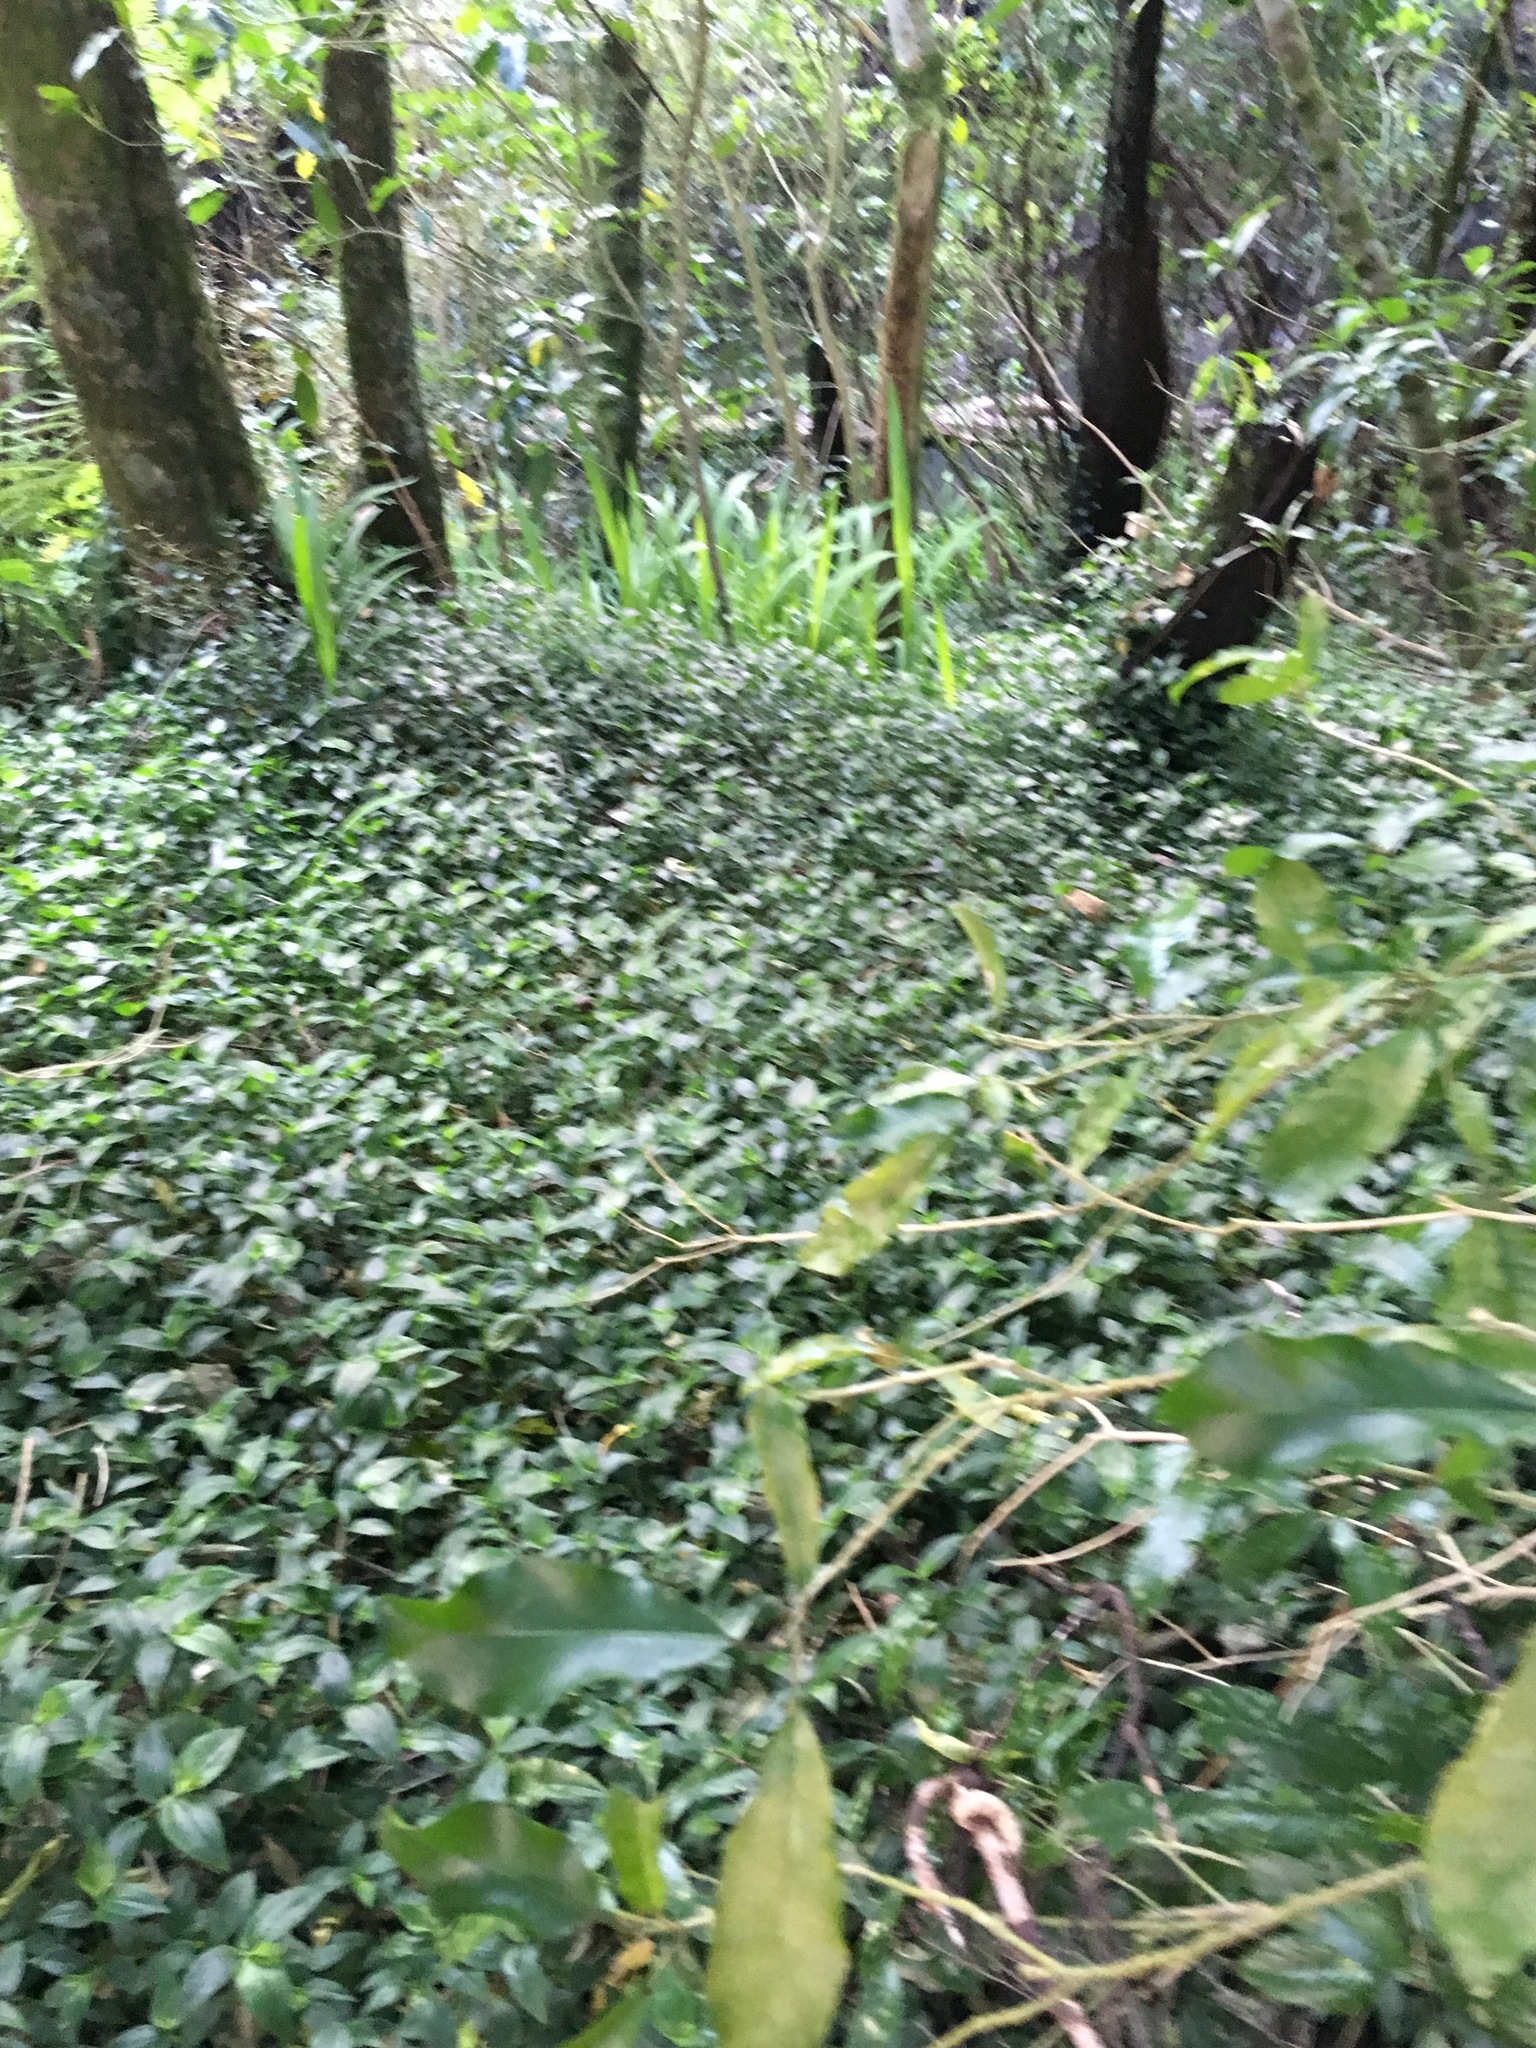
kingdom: Plantae
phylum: Tracheophyta
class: Liliopsida
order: Commelinales
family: Commelinaceae
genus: Tradescantia
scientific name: Tradescantia fluminensis
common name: Wandering-jew
